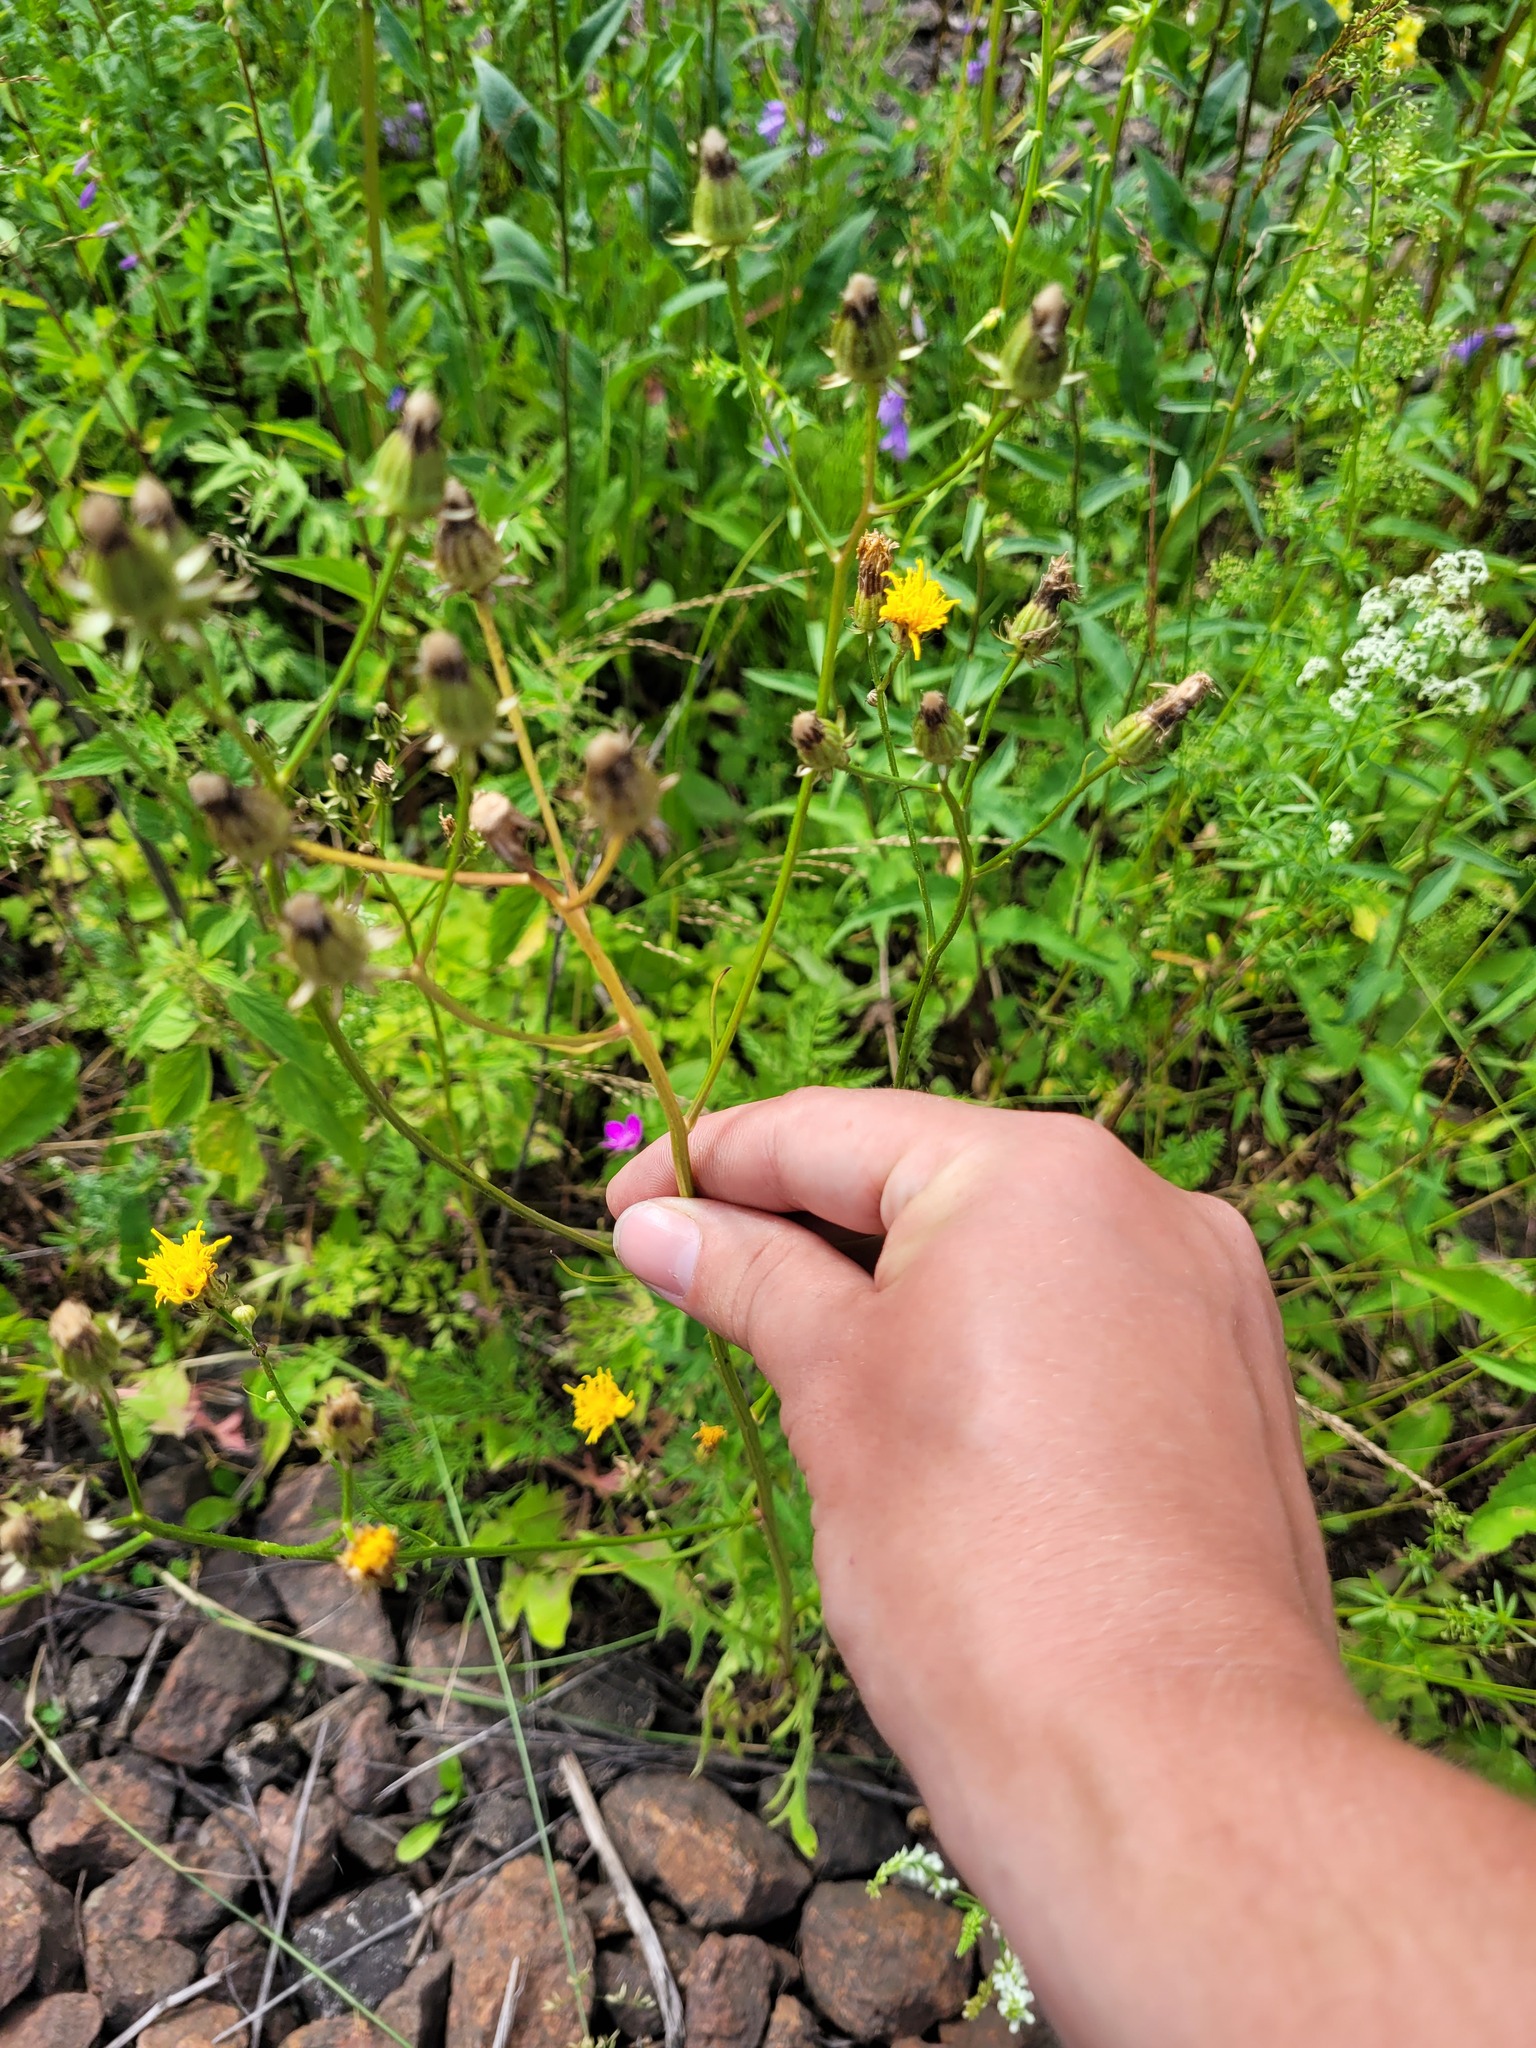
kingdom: Plantae
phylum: Tracheophyta
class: Magnoliopsida
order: Asterales
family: Asteraceae
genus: Crepis
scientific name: Crepis biennis
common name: Rough hawk's-beard
